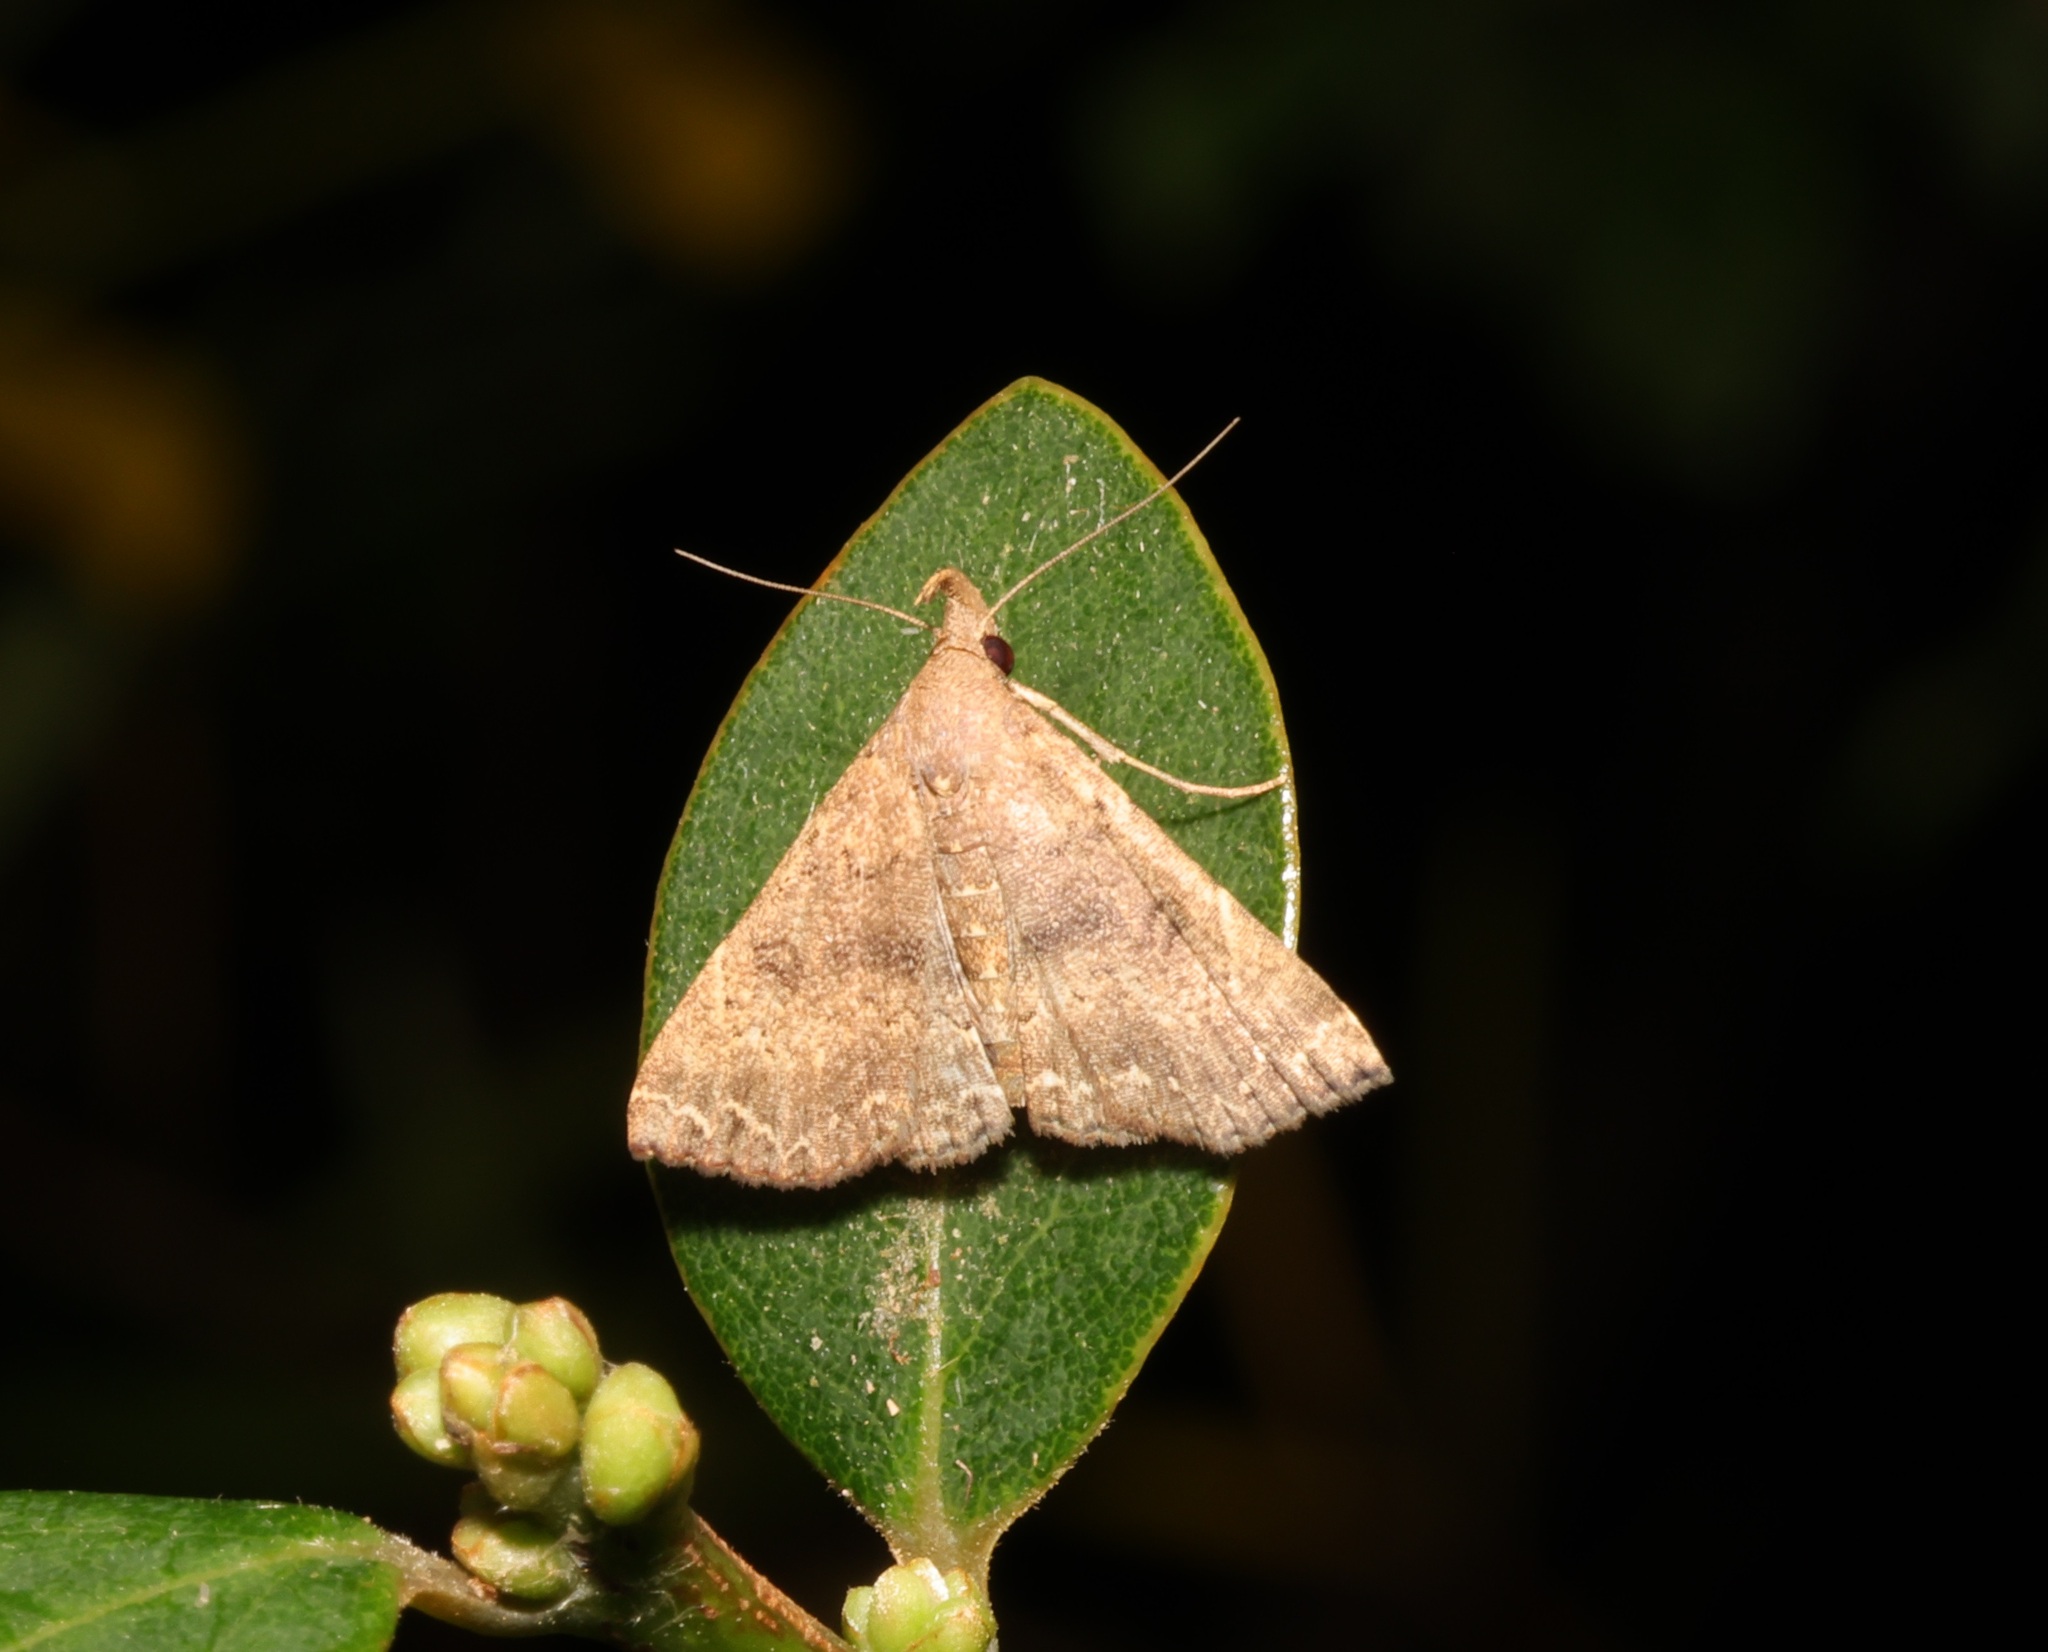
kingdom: Animalia
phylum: Arthropoda
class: Insecta
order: Lepidoptera
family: Erebidae
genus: Progonia
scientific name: Progonia oileusalis
